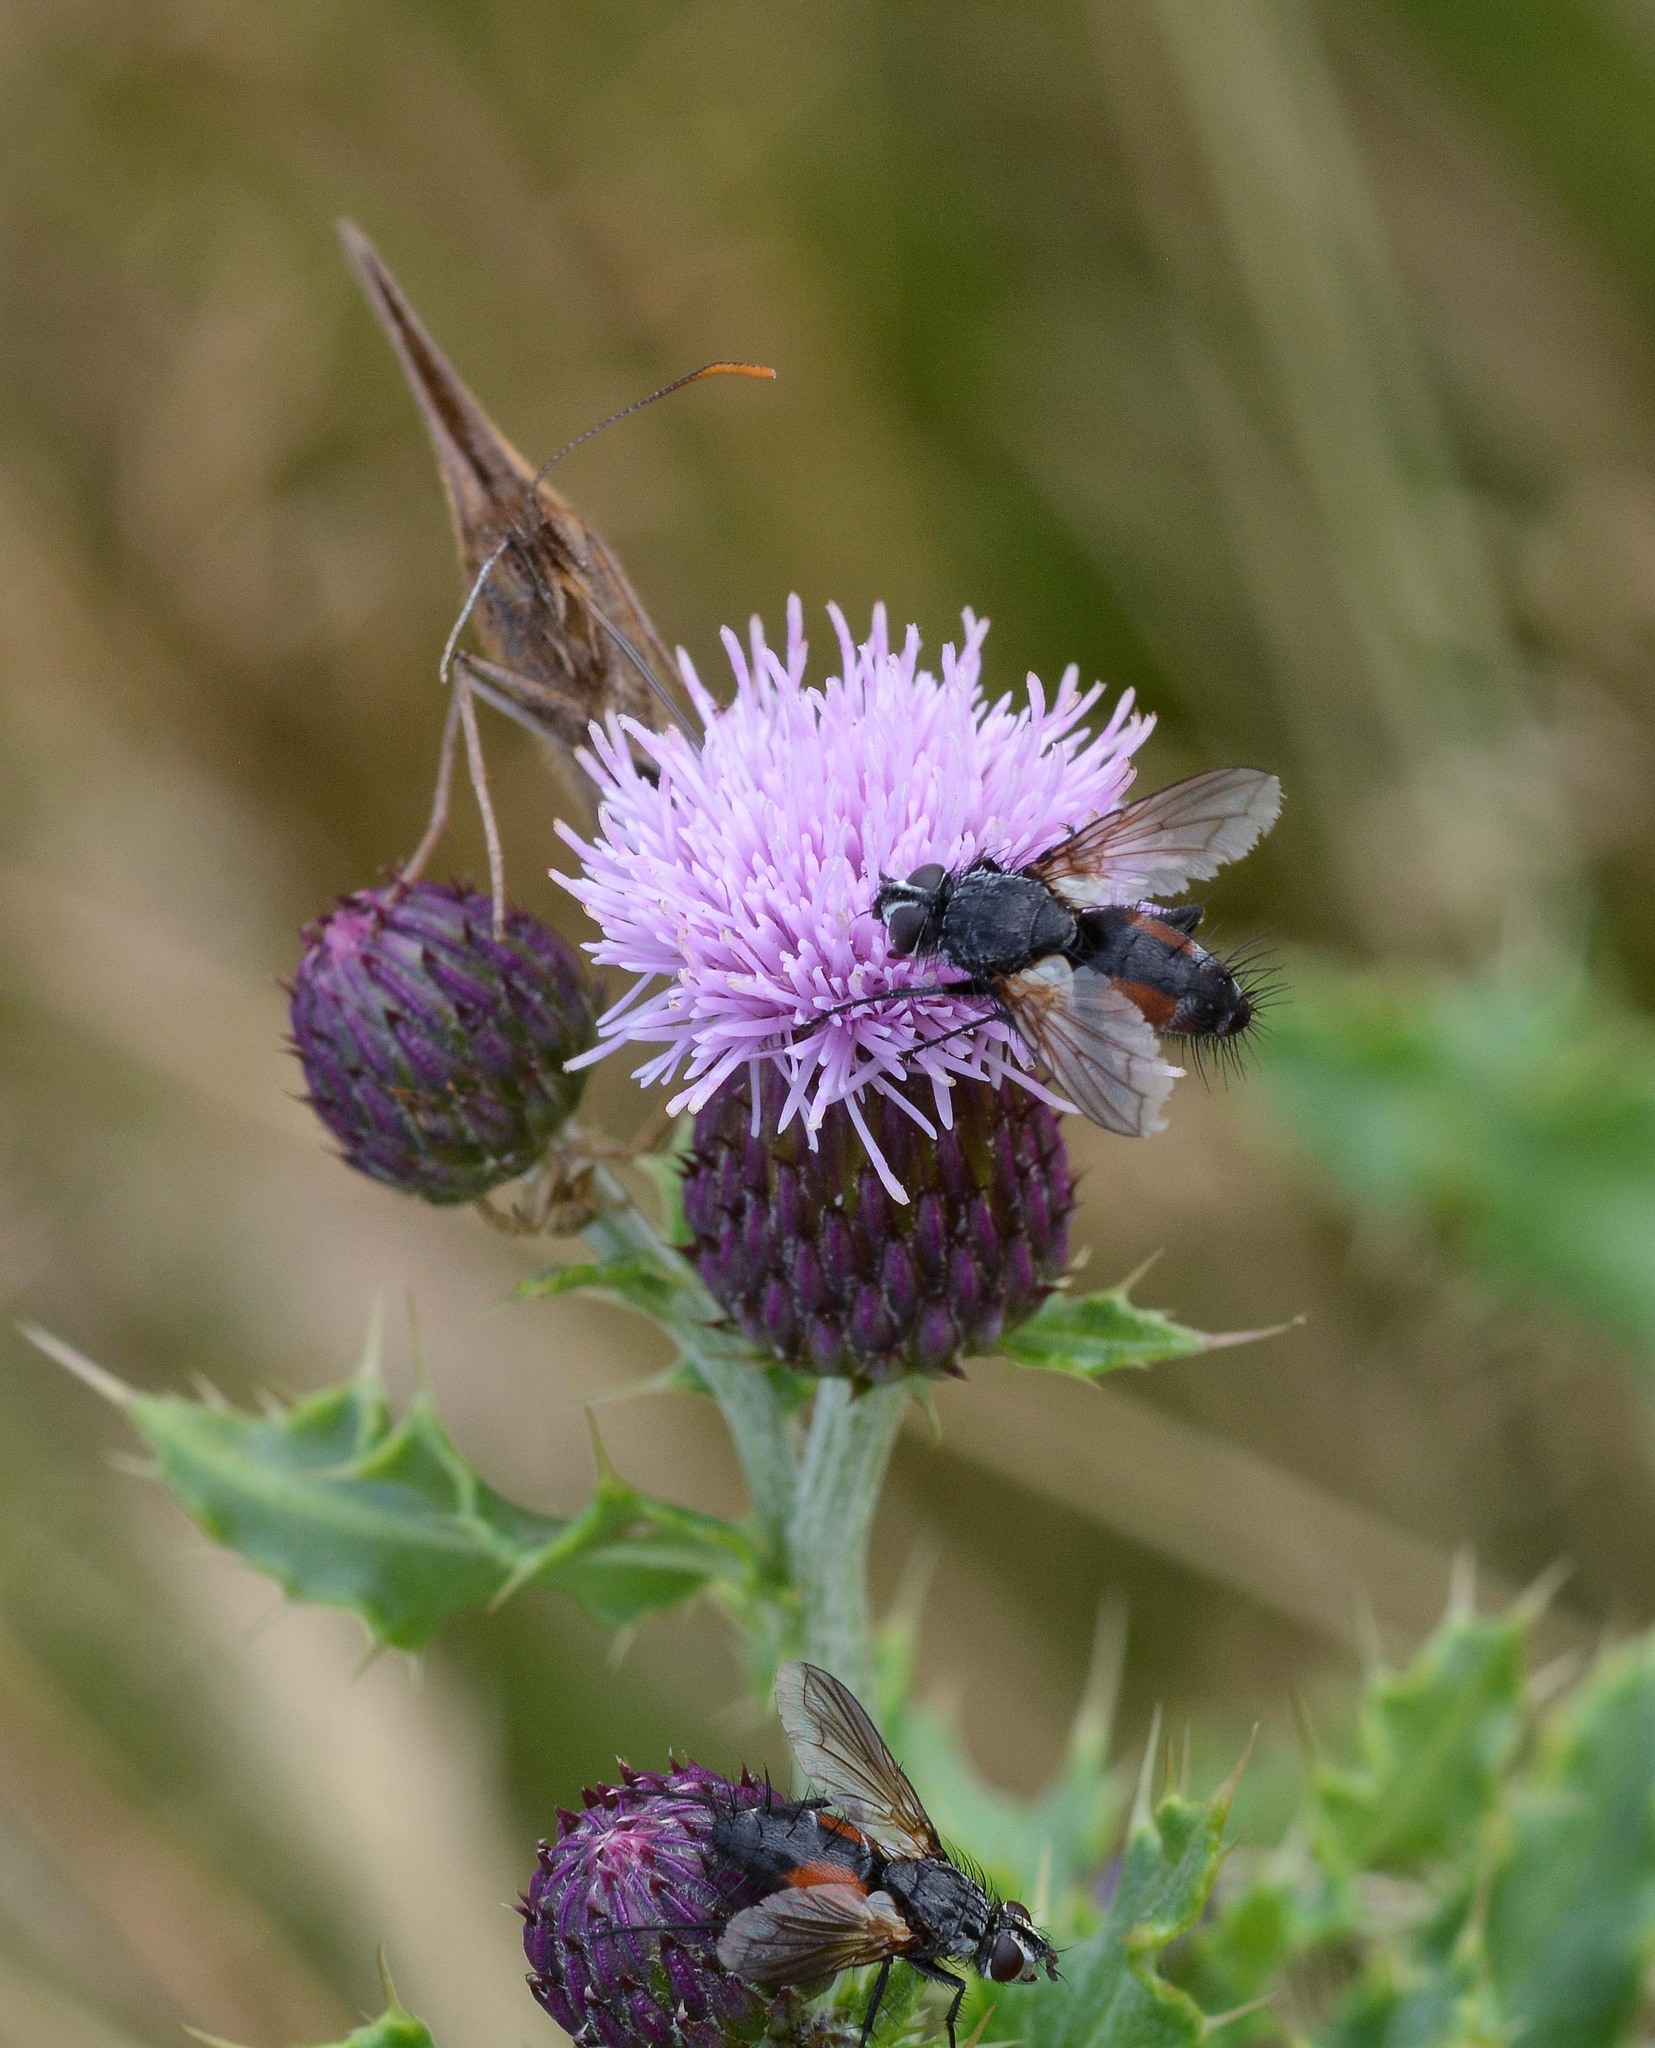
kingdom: Animalia
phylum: Arthropoda
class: Insecta
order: Diptera
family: Tachinidae
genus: Eriothrix
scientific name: Eriothrix rufomaculatus
